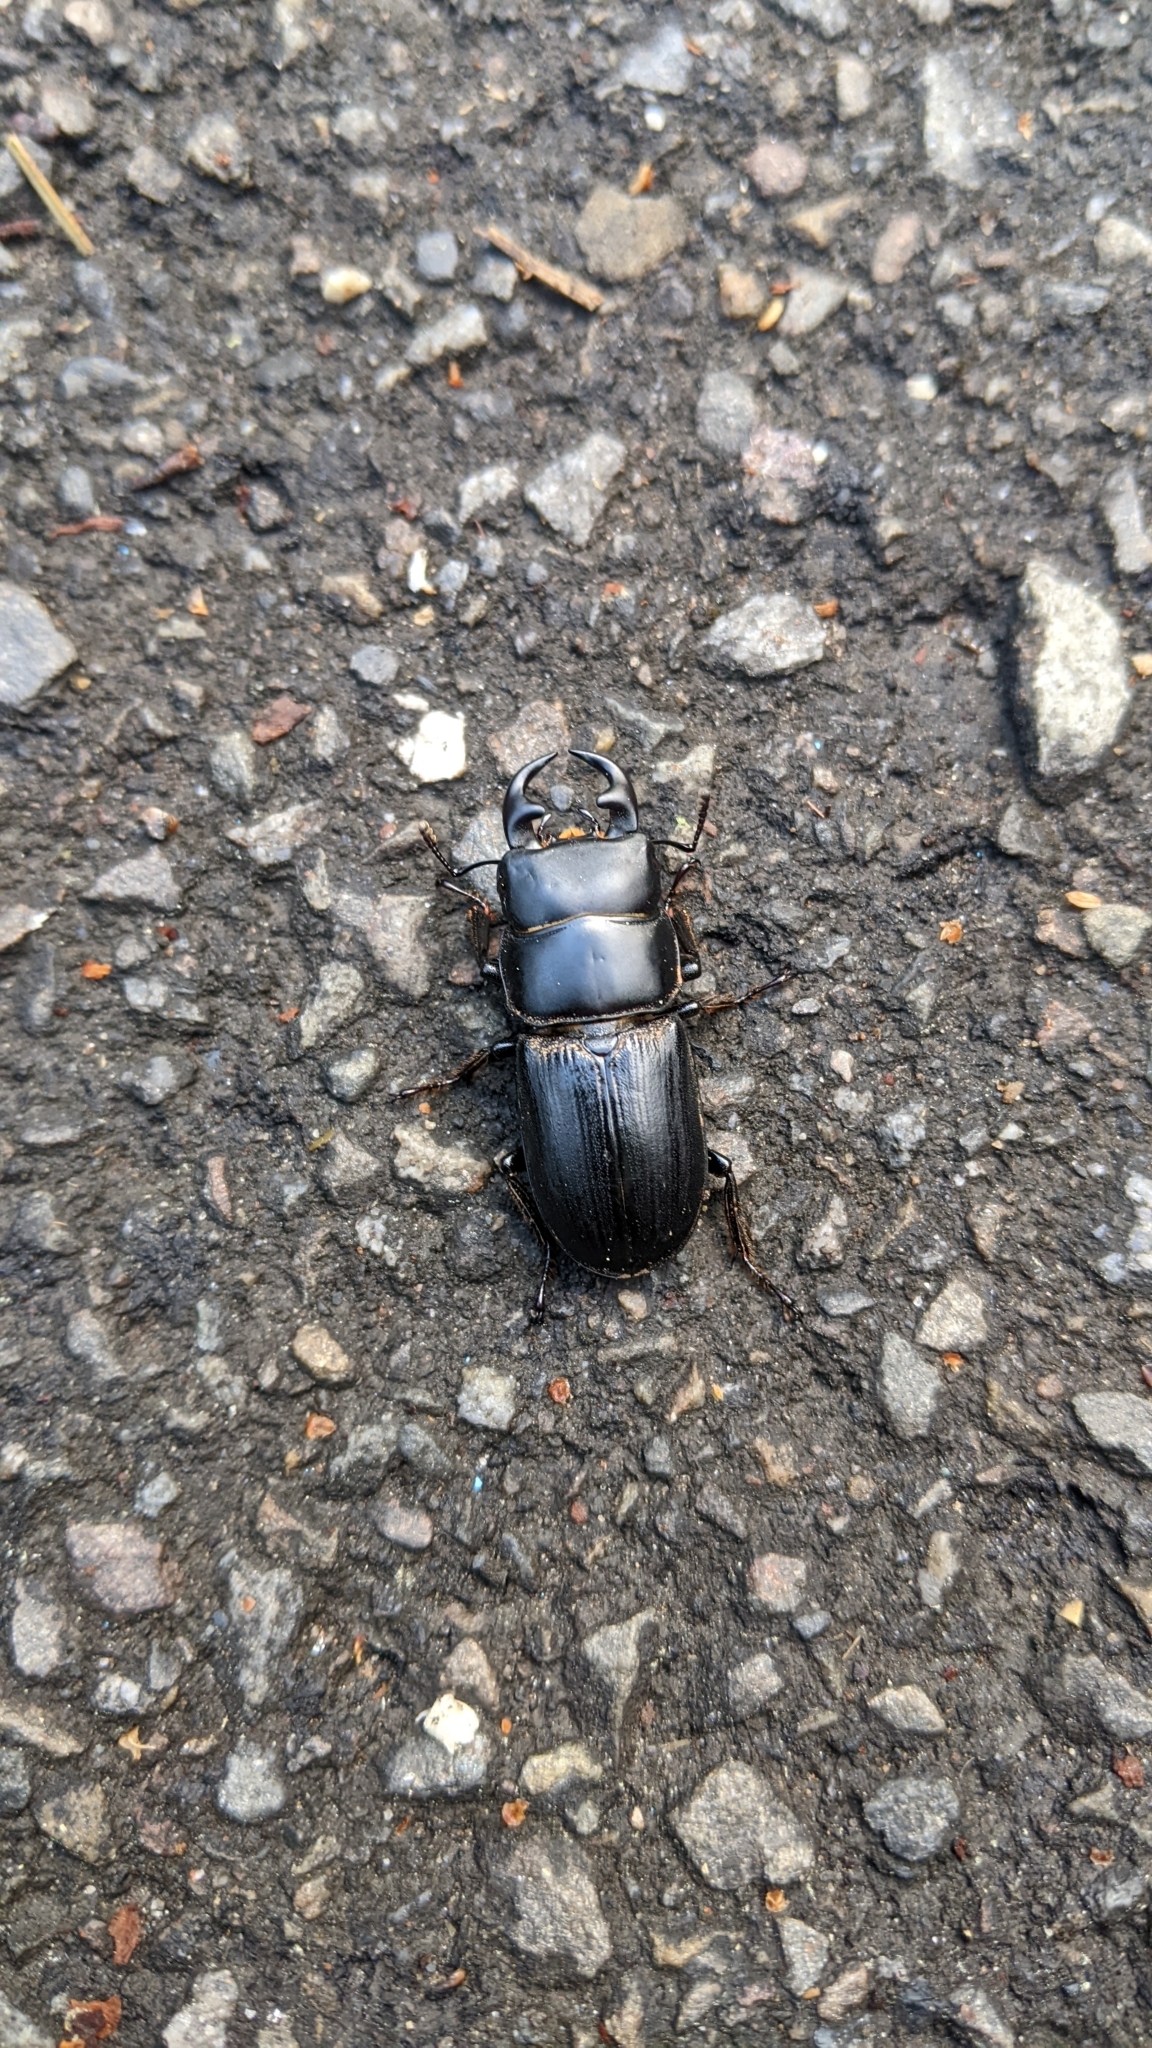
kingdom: Animalia
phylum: Arthropoda
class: Insecta
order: Coleoptera
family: Lucanidae
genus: Dorcus
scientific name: Dorcus hirticornis
